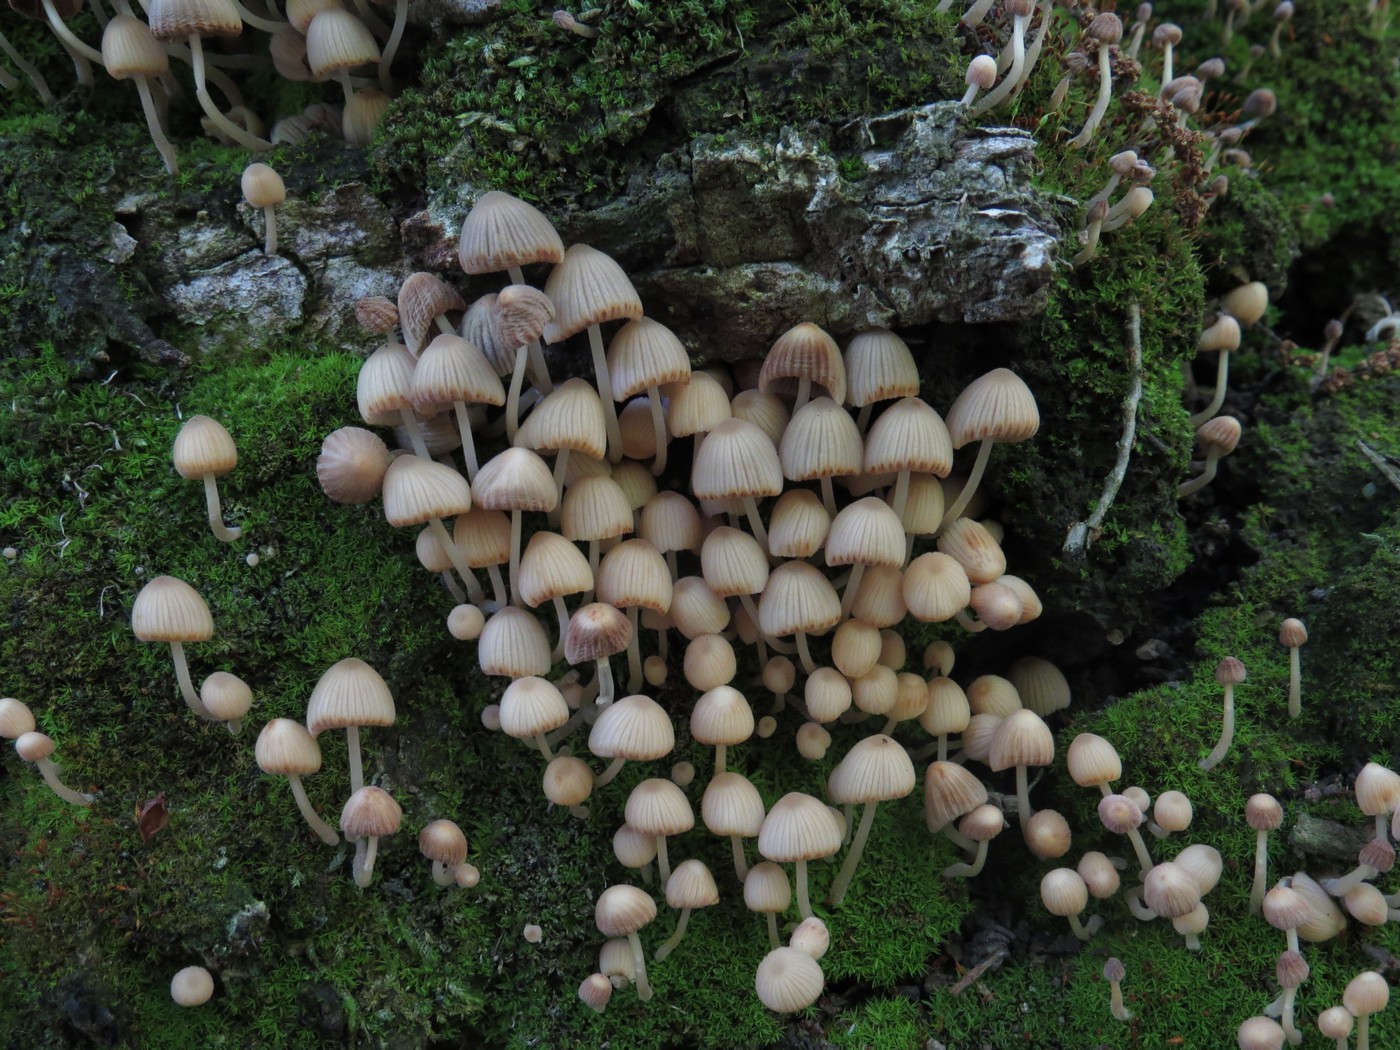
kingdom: Fungi
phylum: Basidiomycota
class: Agaricomycetes
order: Agaricales
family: Psathyrellaceae
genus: Coprinellus
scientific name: Coprinellus disseminatus
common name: Fairies' bonnets
